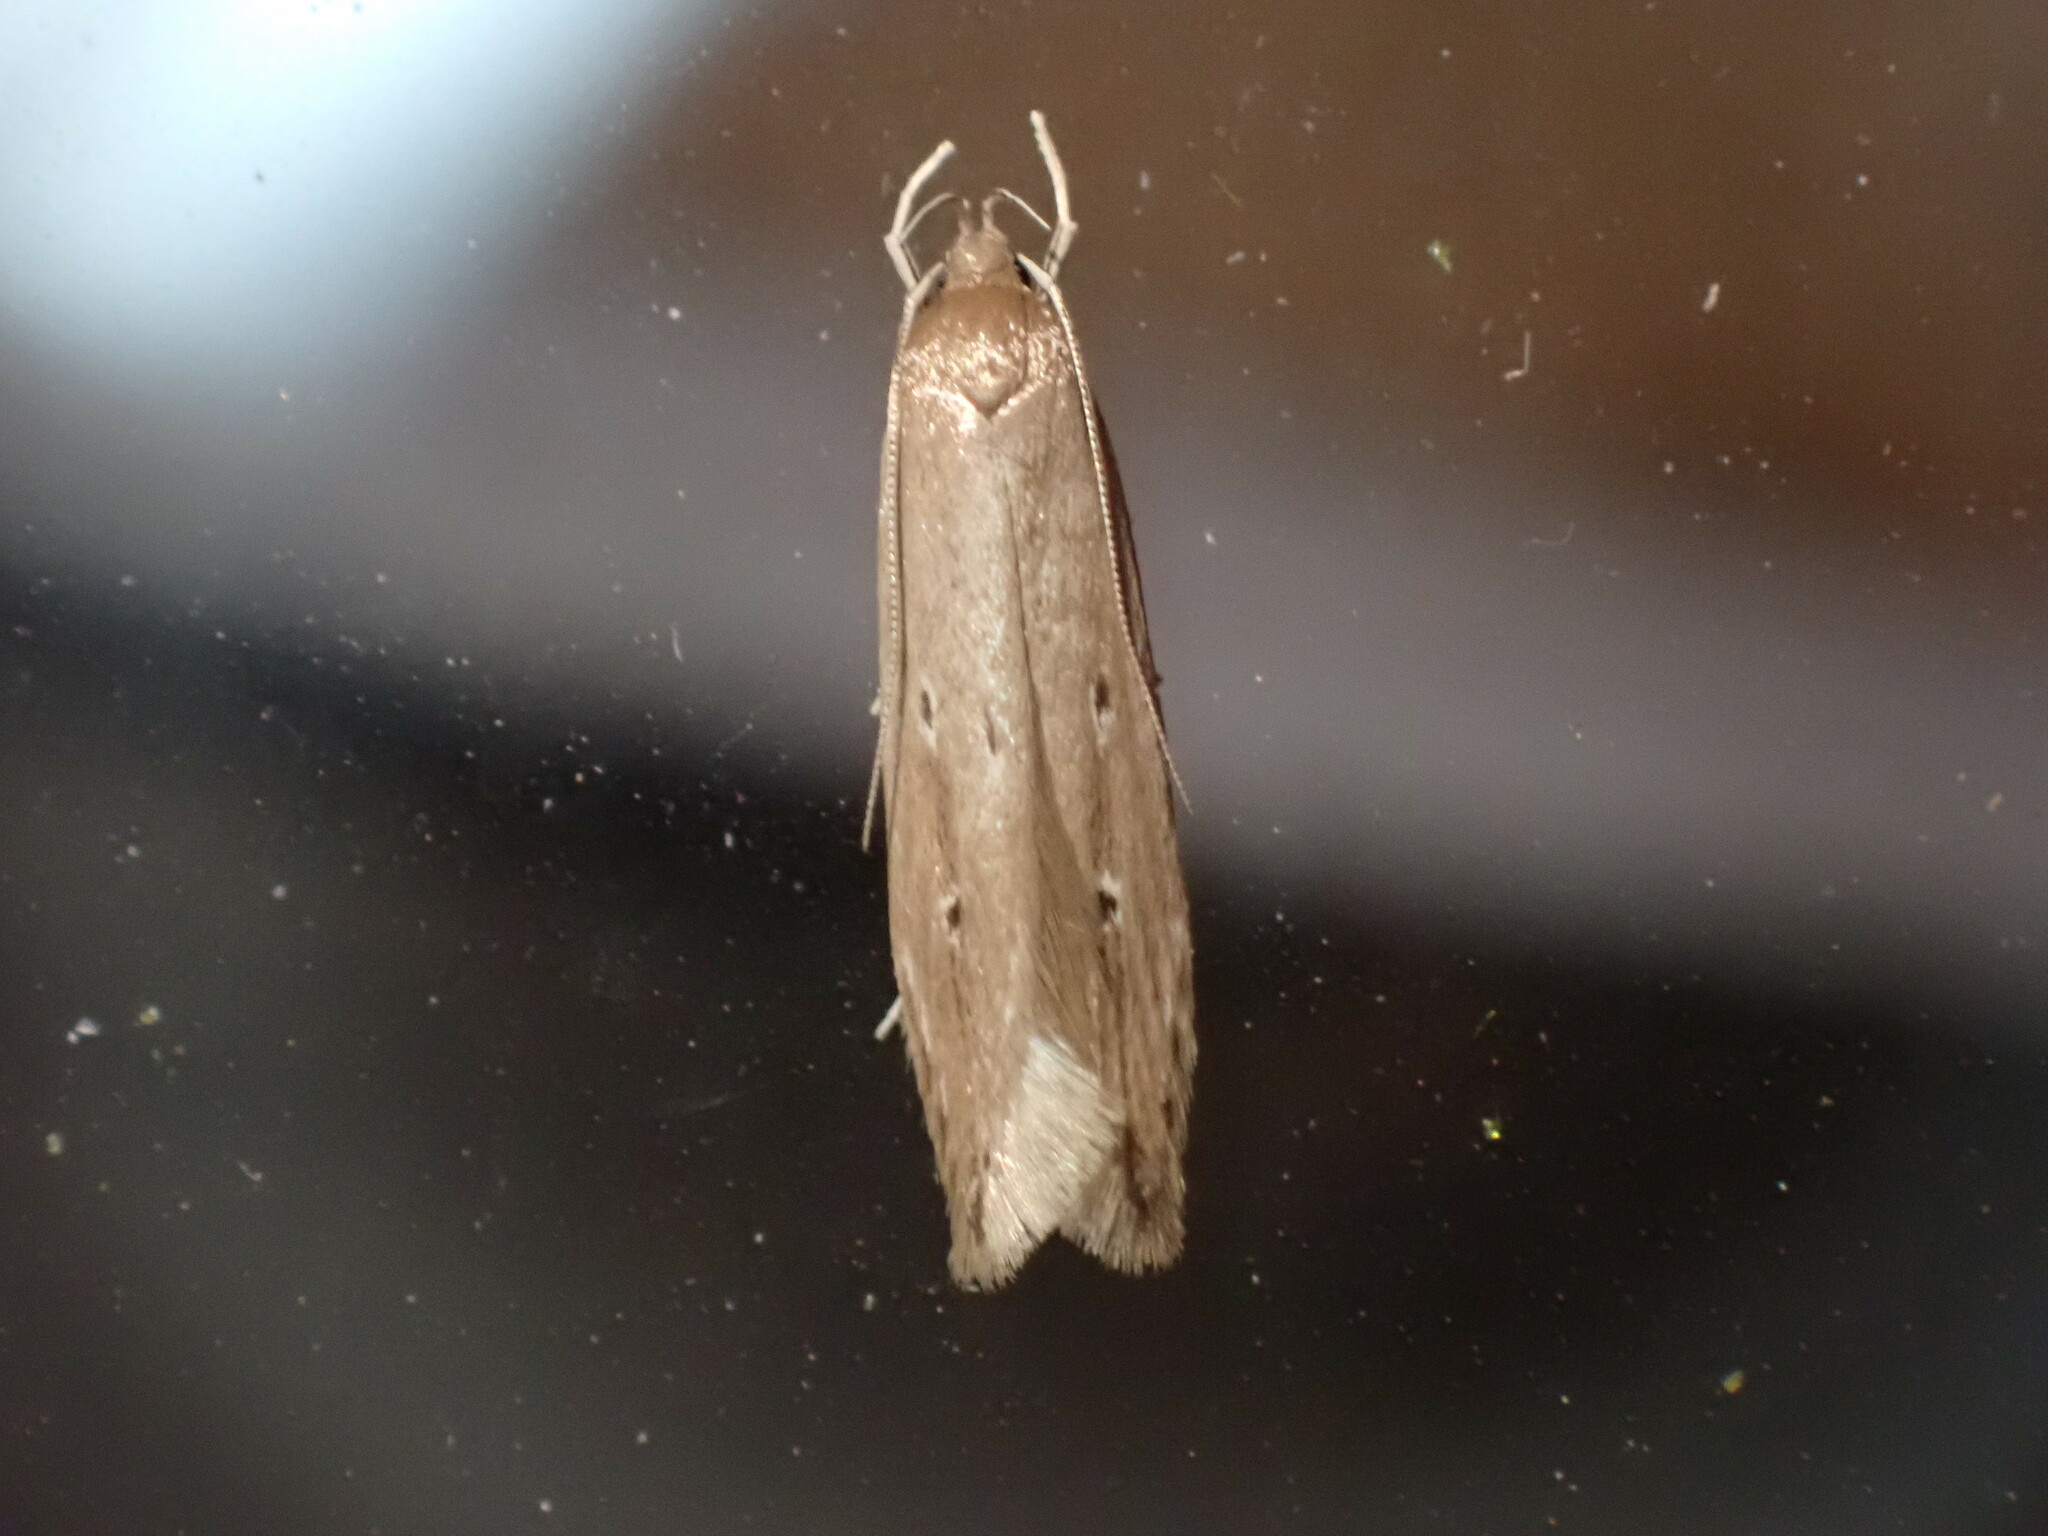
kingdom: Animalia
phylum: Arthropoda
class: Insecta
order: Lepidoptera
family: Cosmopterigidae
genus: Limnaecia
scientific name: Limnaecia phragmitella
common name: Bulrush cosmet
